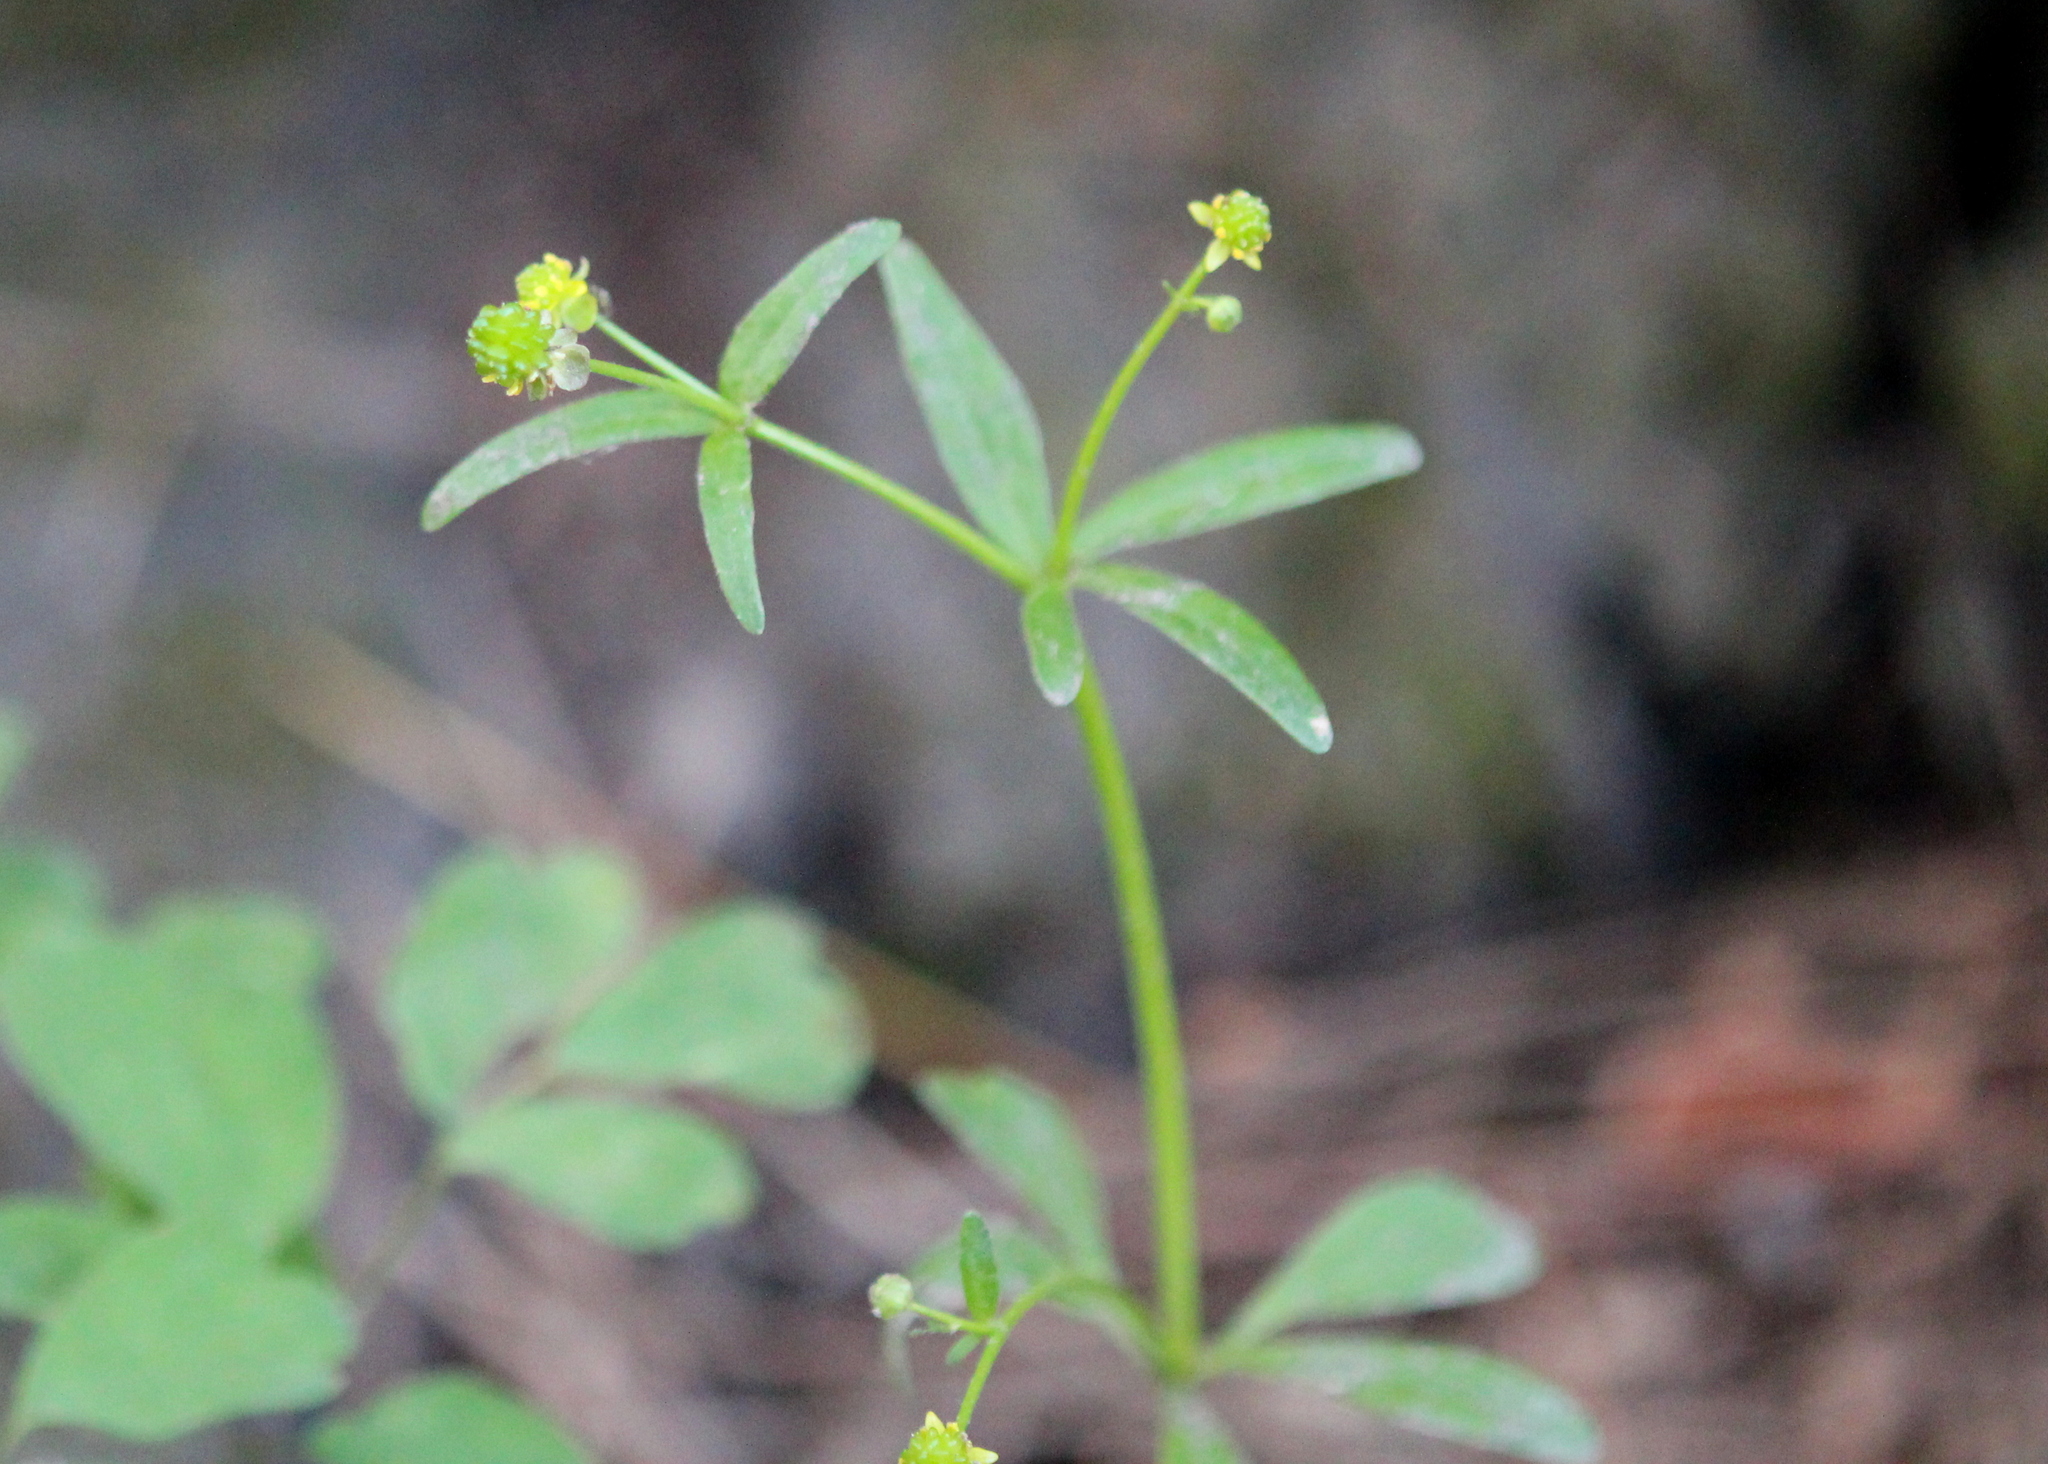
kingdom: Plantae
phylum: Tracheophyta
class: Magnoliopsida
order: Ranunculales
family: Ranunculaceae
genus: Ranunculus
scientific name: Ranunculus abortivus
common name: Early wood buttercup
